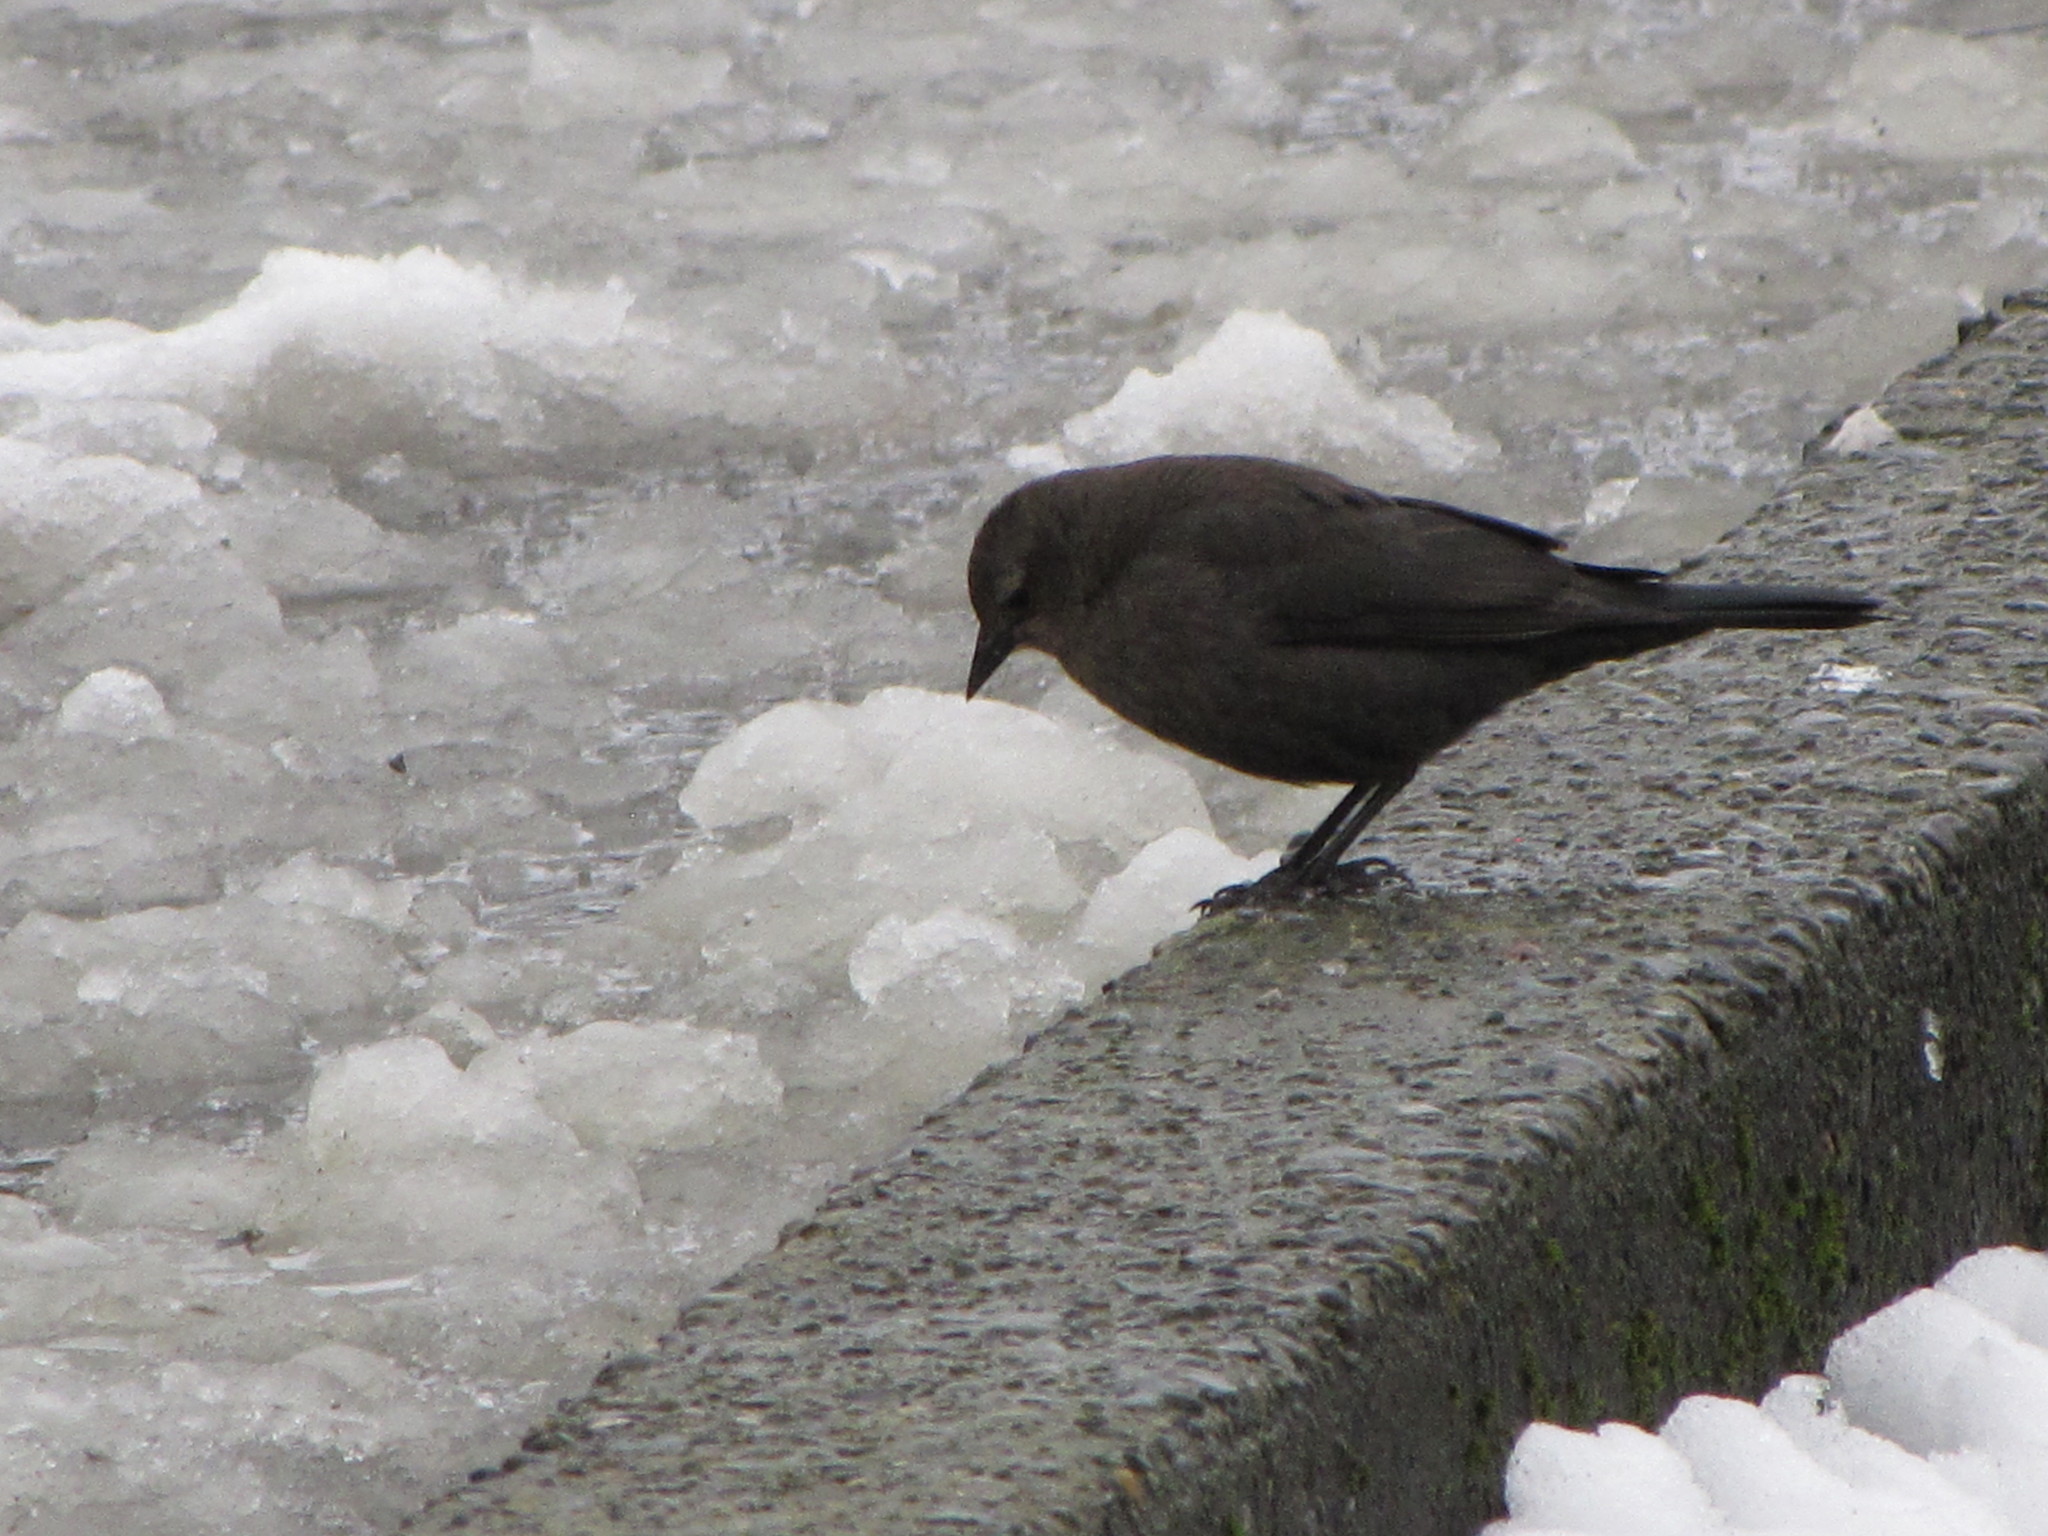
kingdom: Animalia
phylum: Chordata
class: Aves
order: Passeriformes
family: Icteridae
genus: Euphagus
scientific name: Euphagus cyanocephalus
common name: Brewer's blackbird
